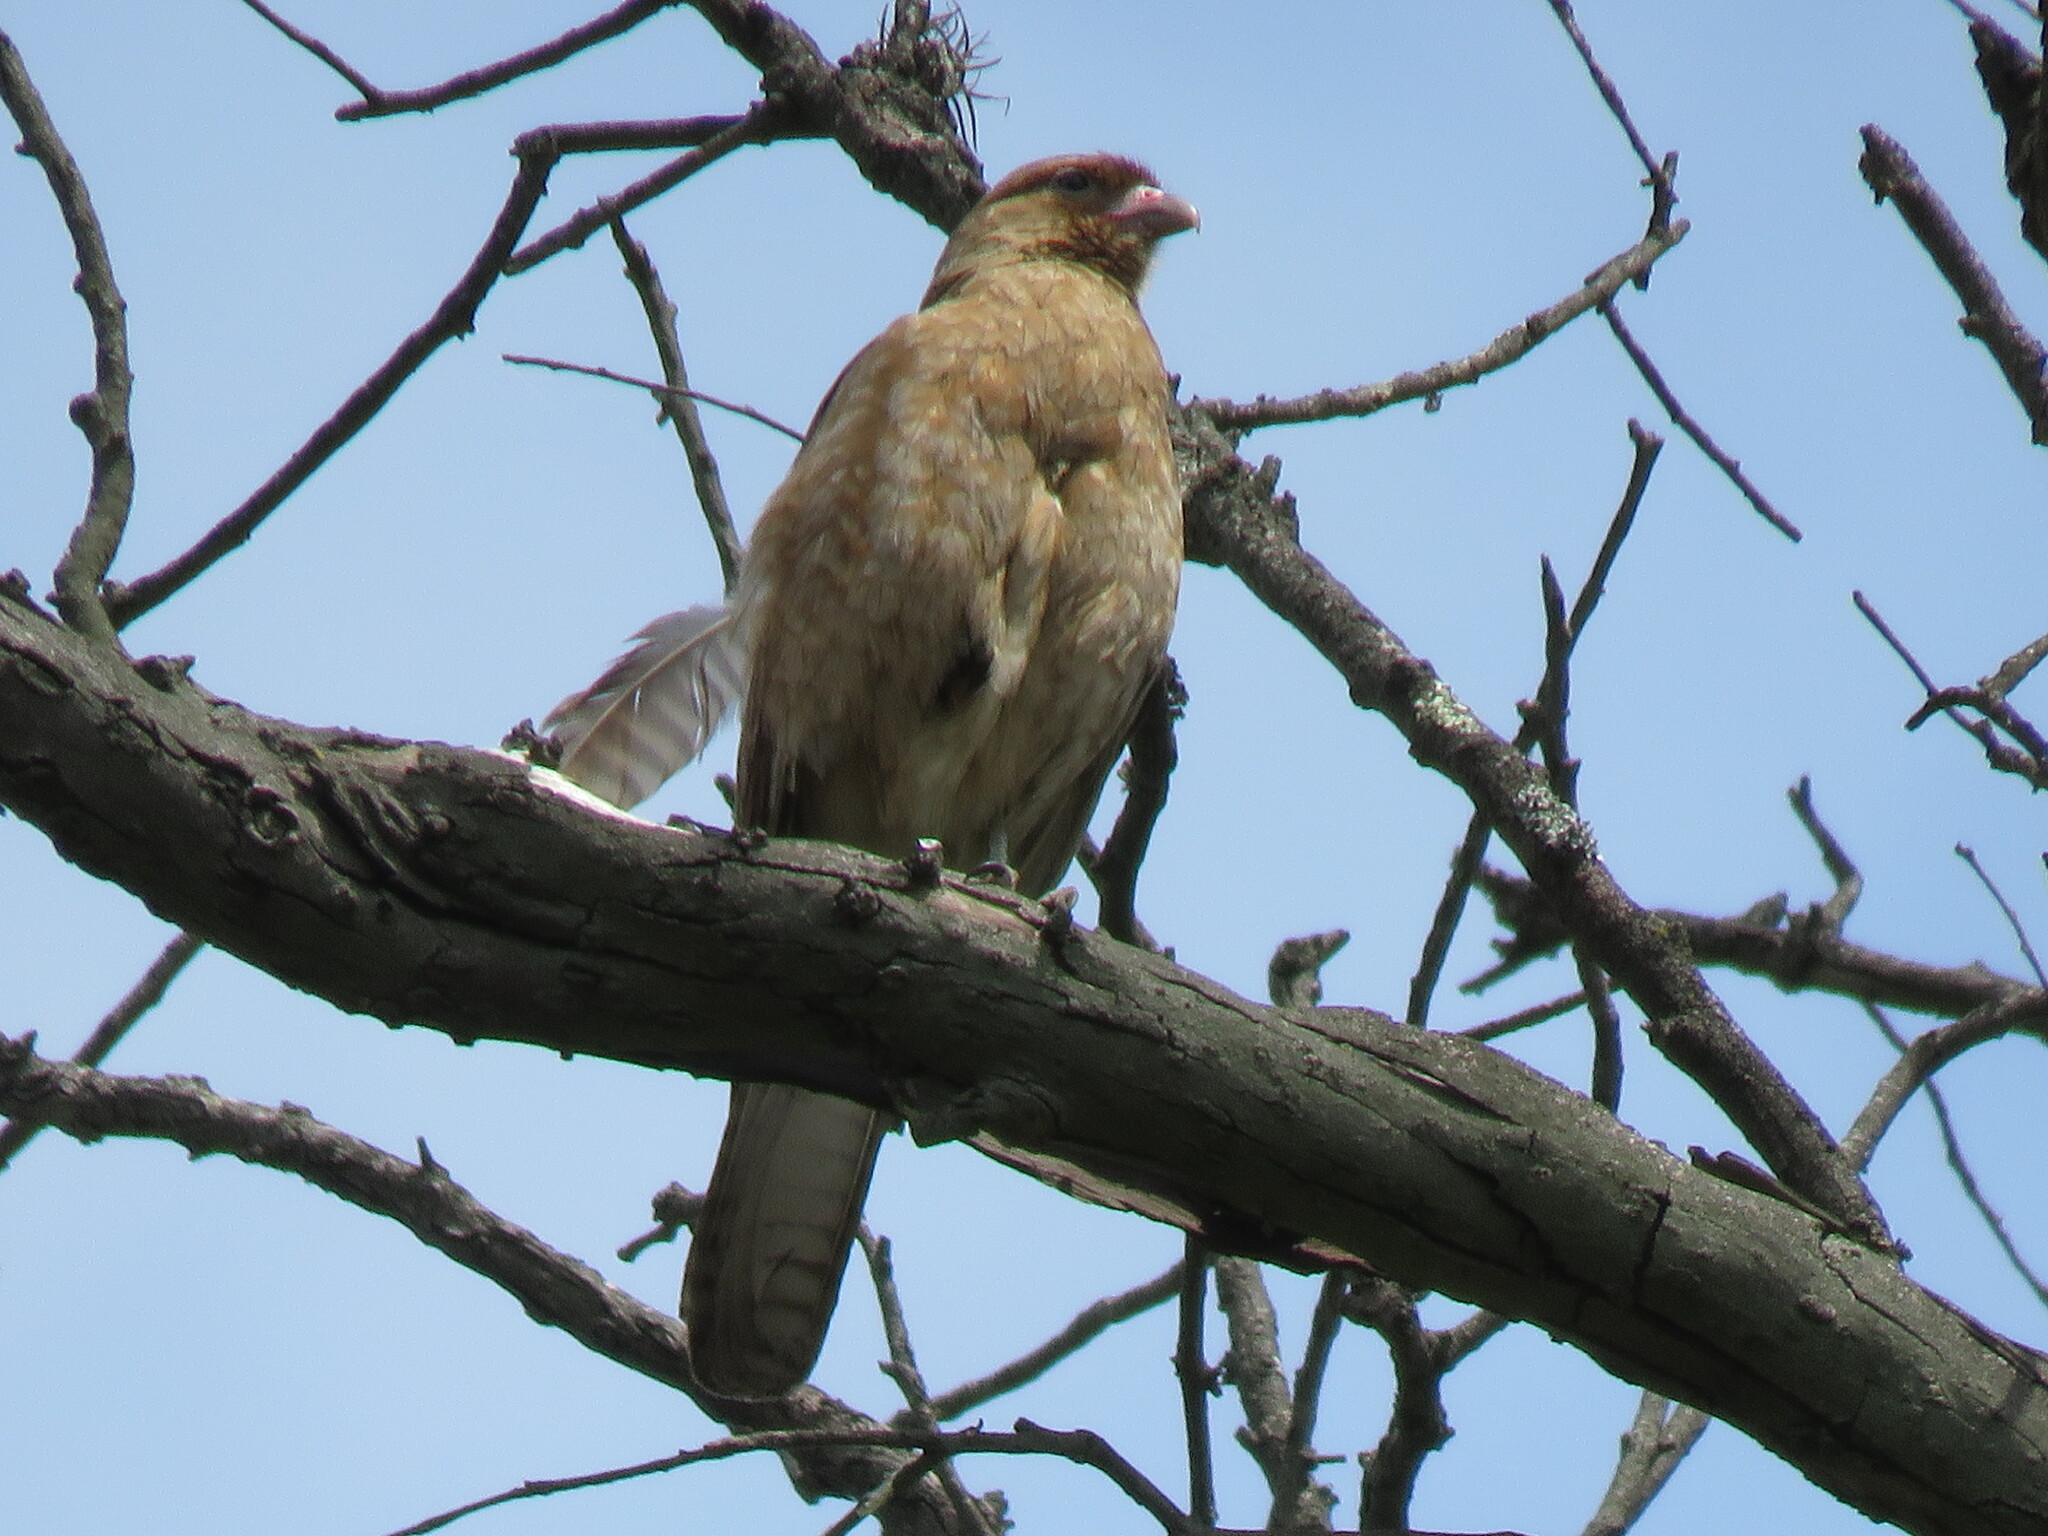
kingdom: Animalia
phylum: Chordata
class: Aves
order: Falconiformes
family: Falconidae
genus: Daptrius
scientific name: Daptrius
